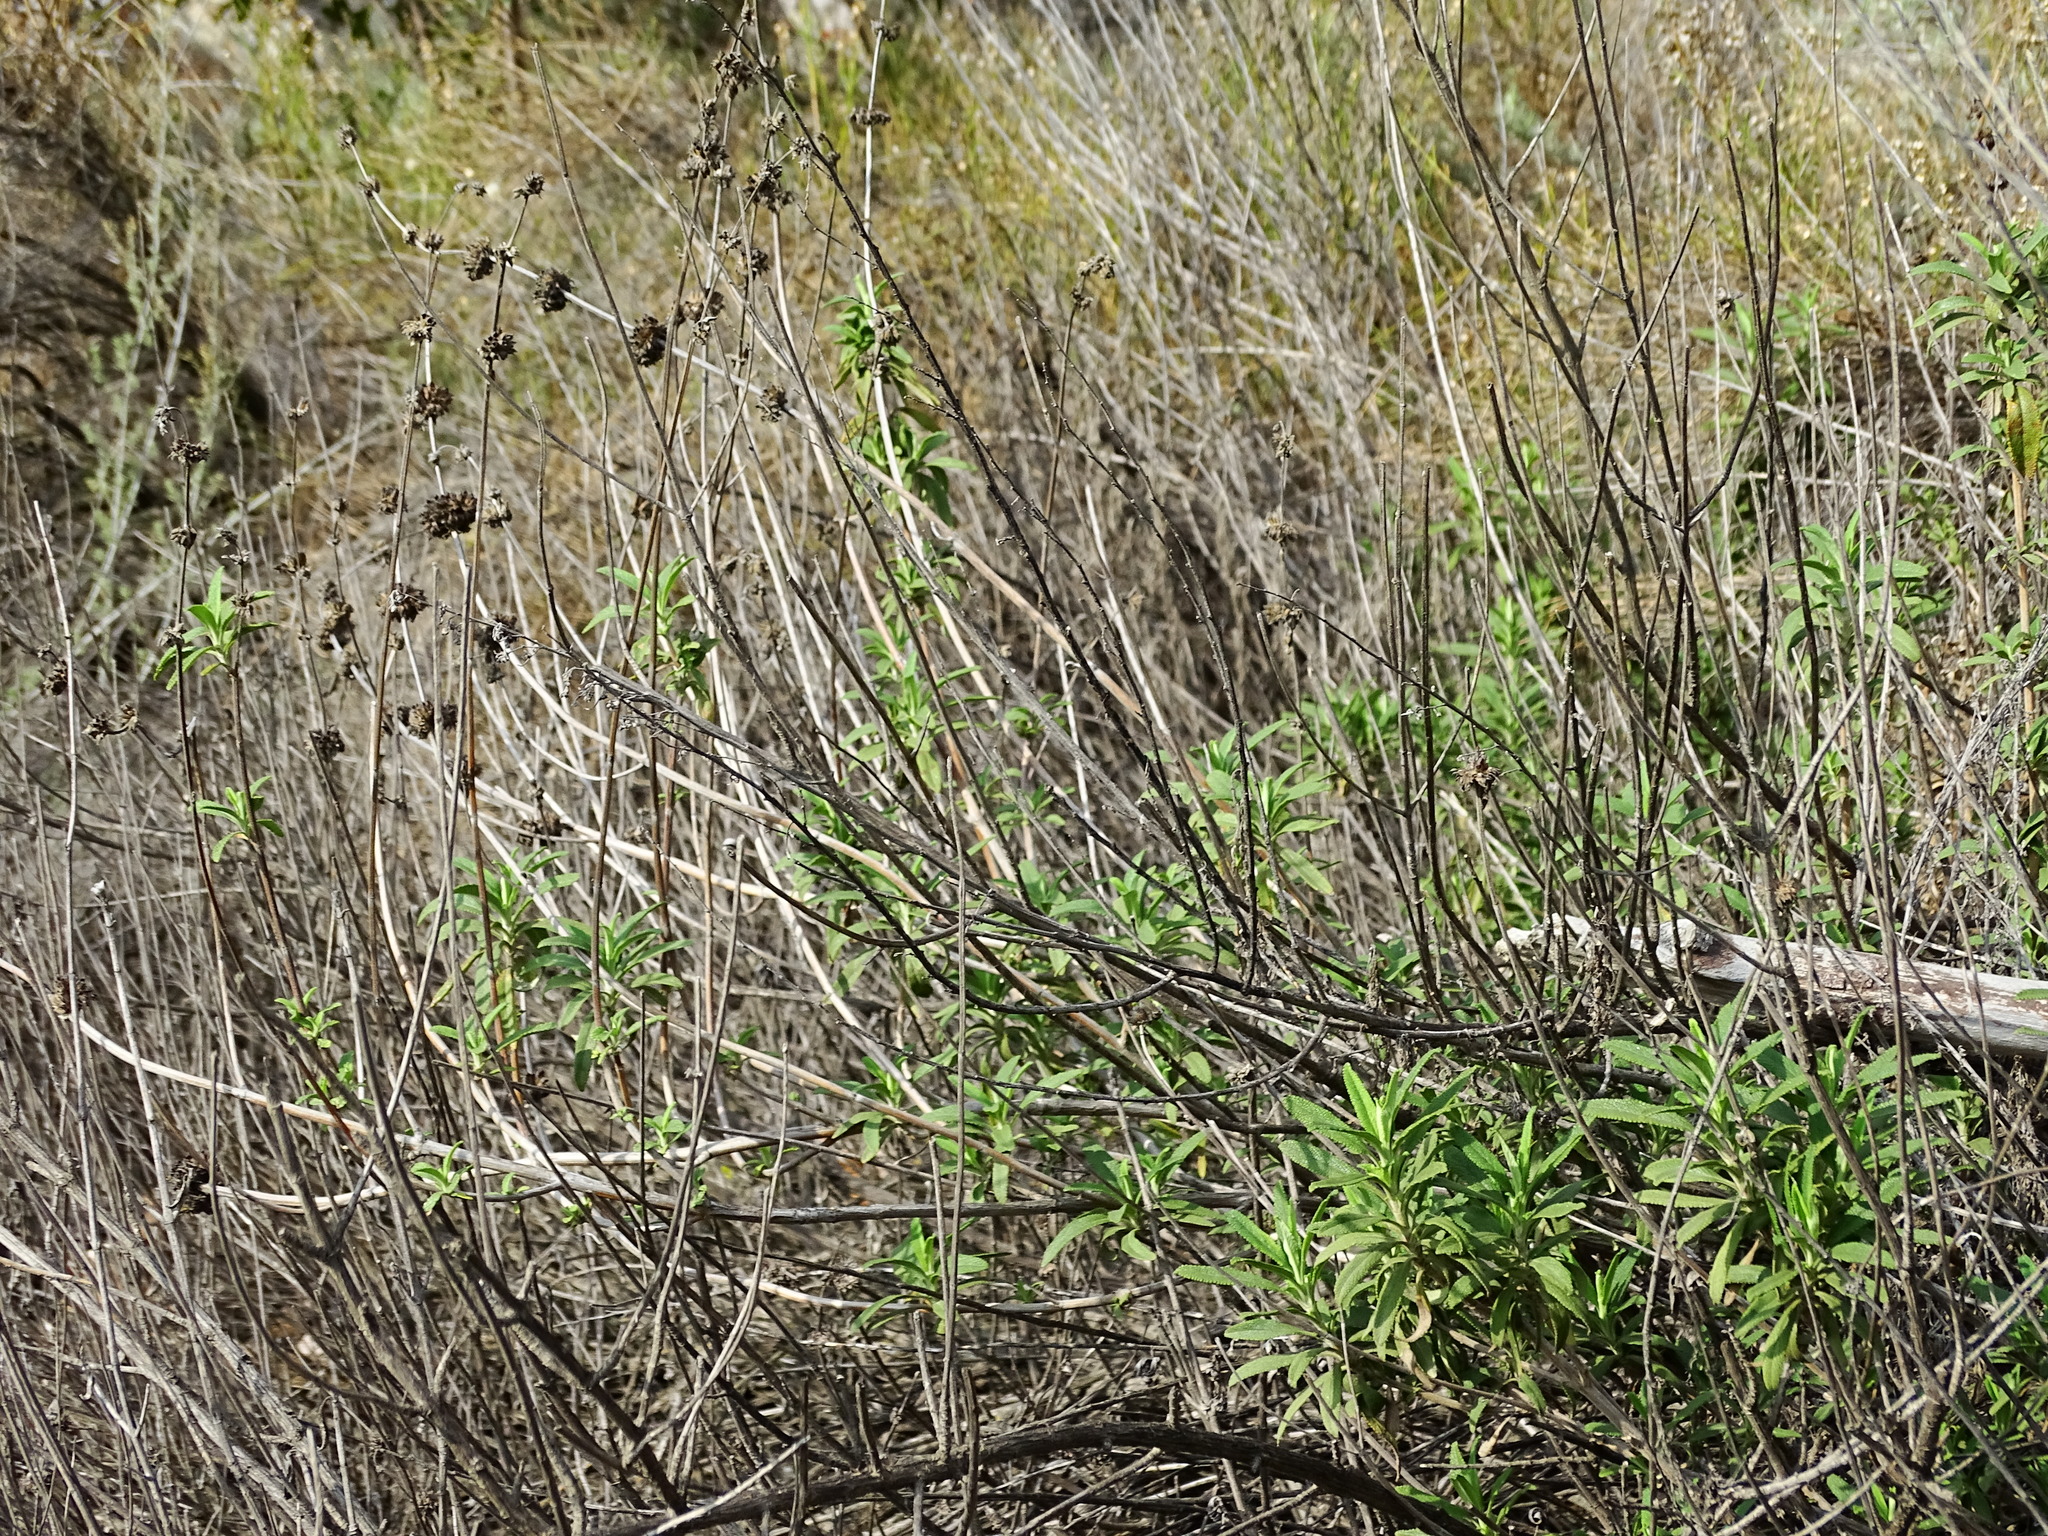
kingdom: Plantae
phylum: Tracheophyta
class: Magnoliopsida
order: Lamiales
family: Lamiaceae
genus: Salvia
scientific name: Salvia mellifera
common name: Black sage
